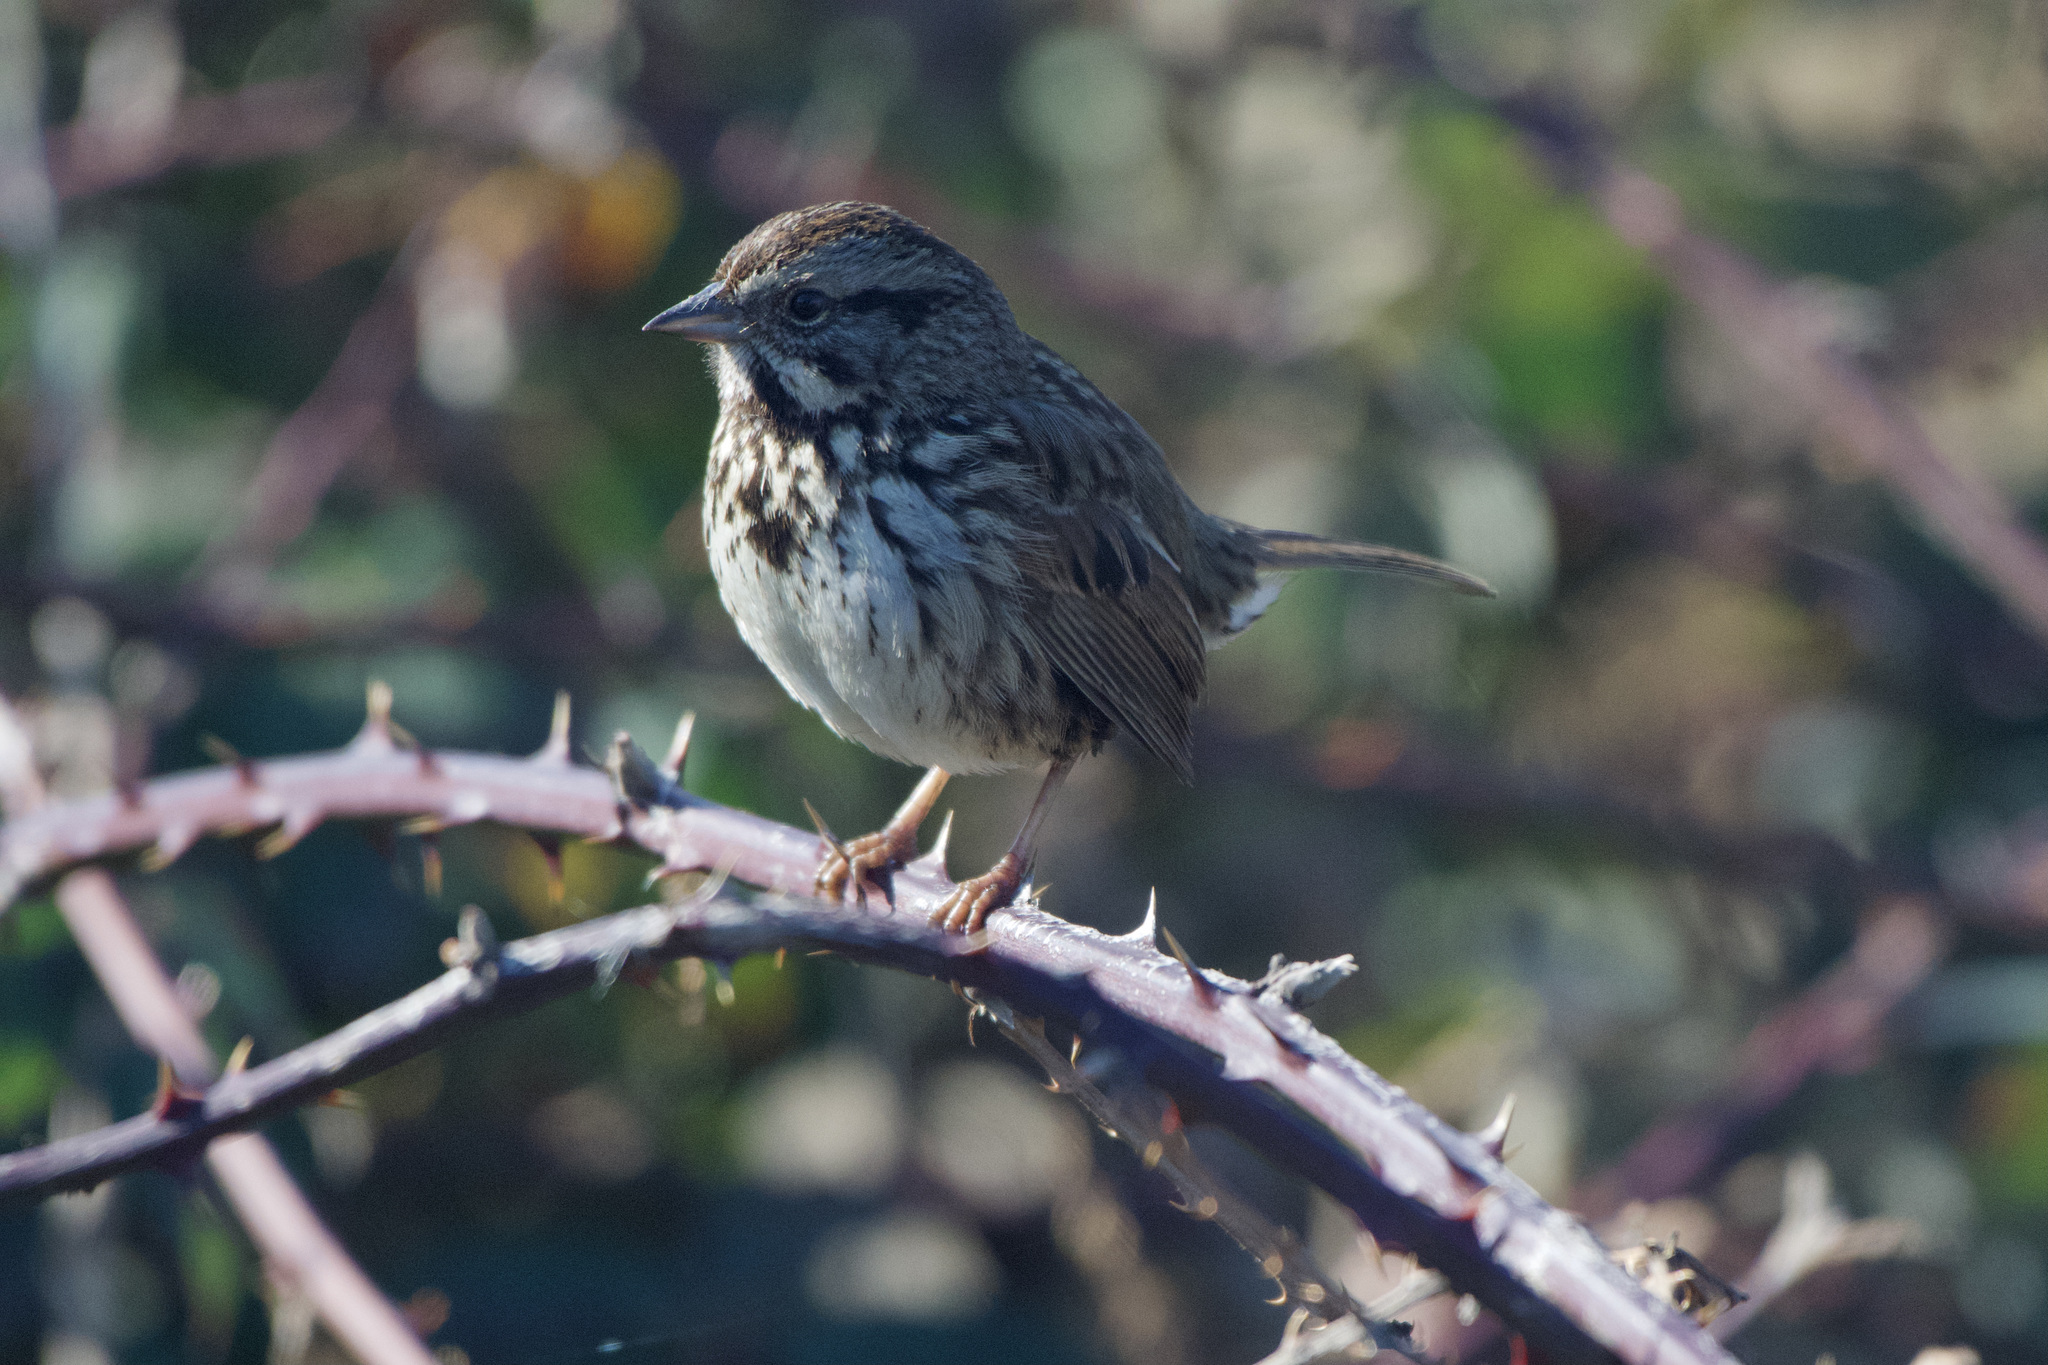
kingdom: Animalia
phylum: Chordata
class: Aves
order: Passeriformes
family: Passerellidae
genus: Melospiza
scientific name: Melospiza melodia
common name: Song sparrow
